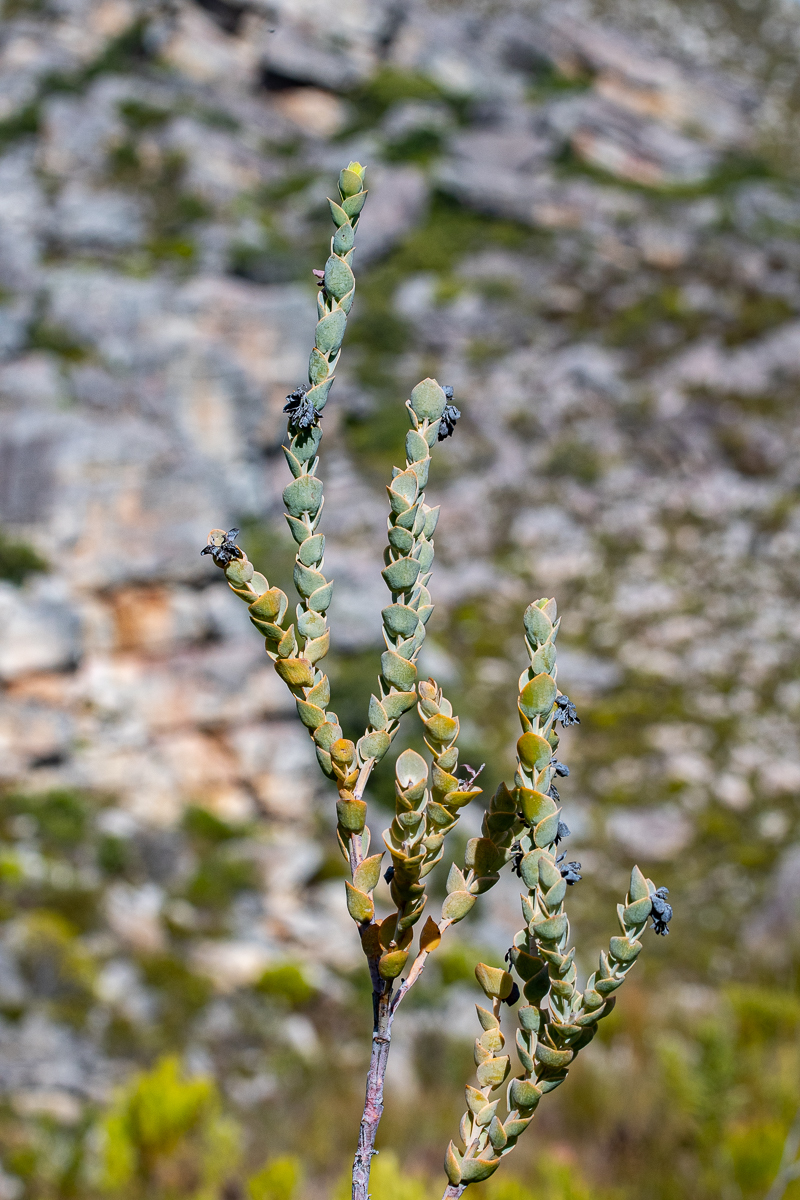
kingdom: Plantae
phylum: Tracheophyta
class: Magnoliopsida
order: Santalales
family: Thesiaceae
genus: Thesium
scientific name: Thesium euphorbioides
